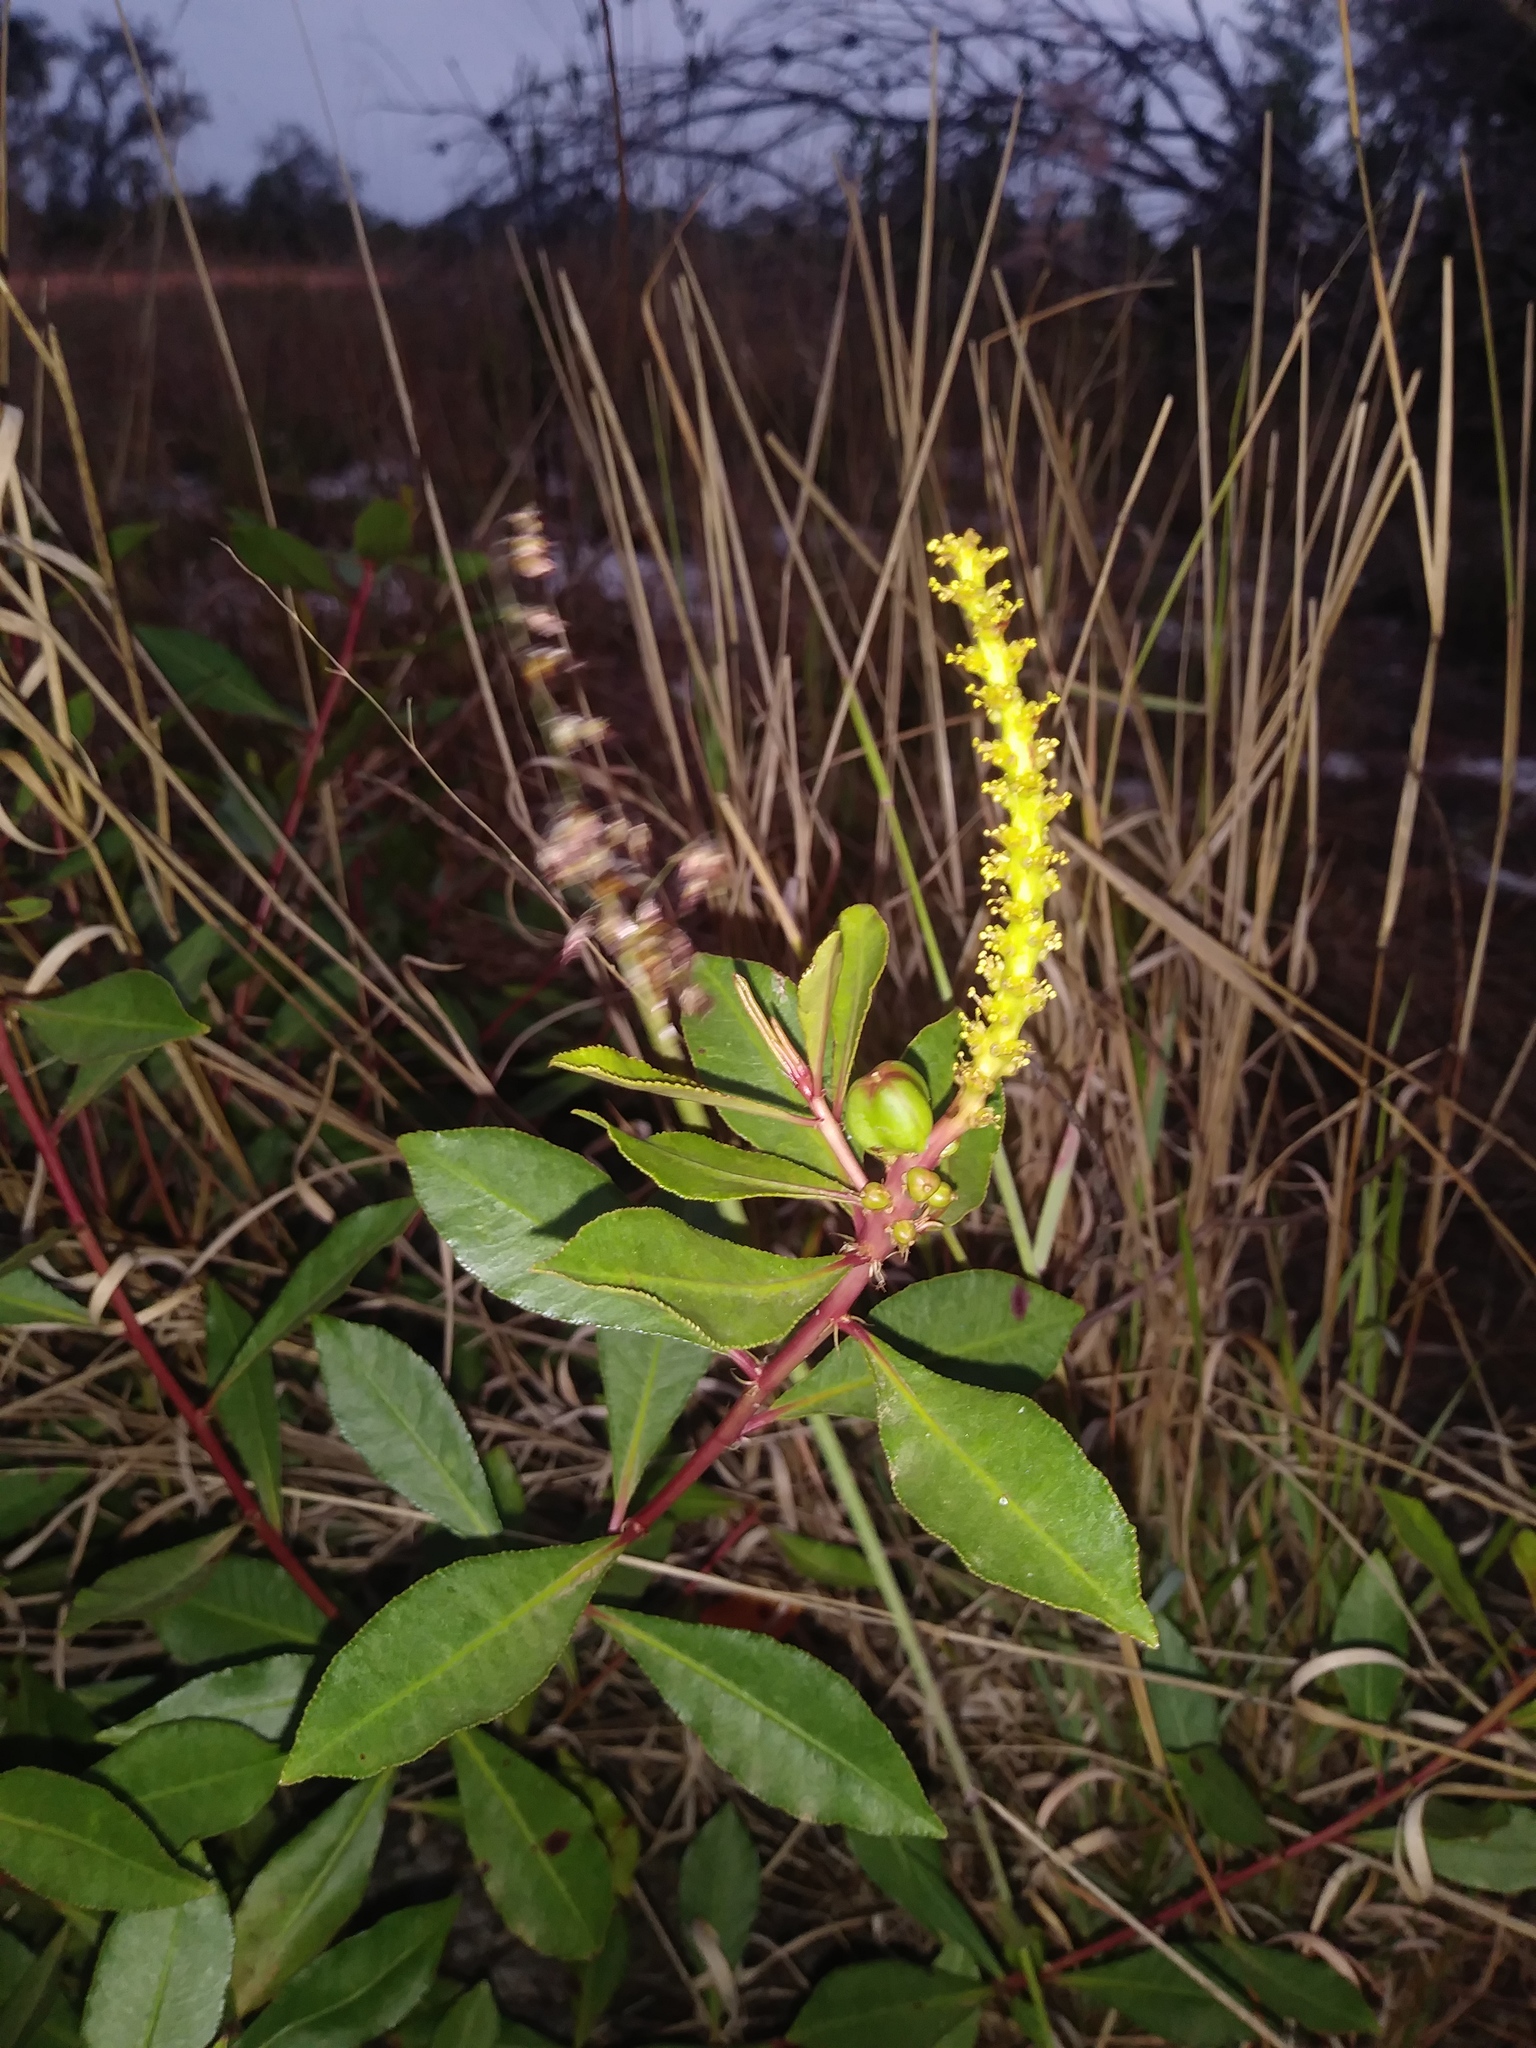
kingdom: Plantae
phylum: Tracheophyta
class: Magnoliopsida
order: Malpighiales
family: Euphorbiaceae
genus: Stillingia
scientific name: Stillingia sylvatica
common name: Queen's-delight
